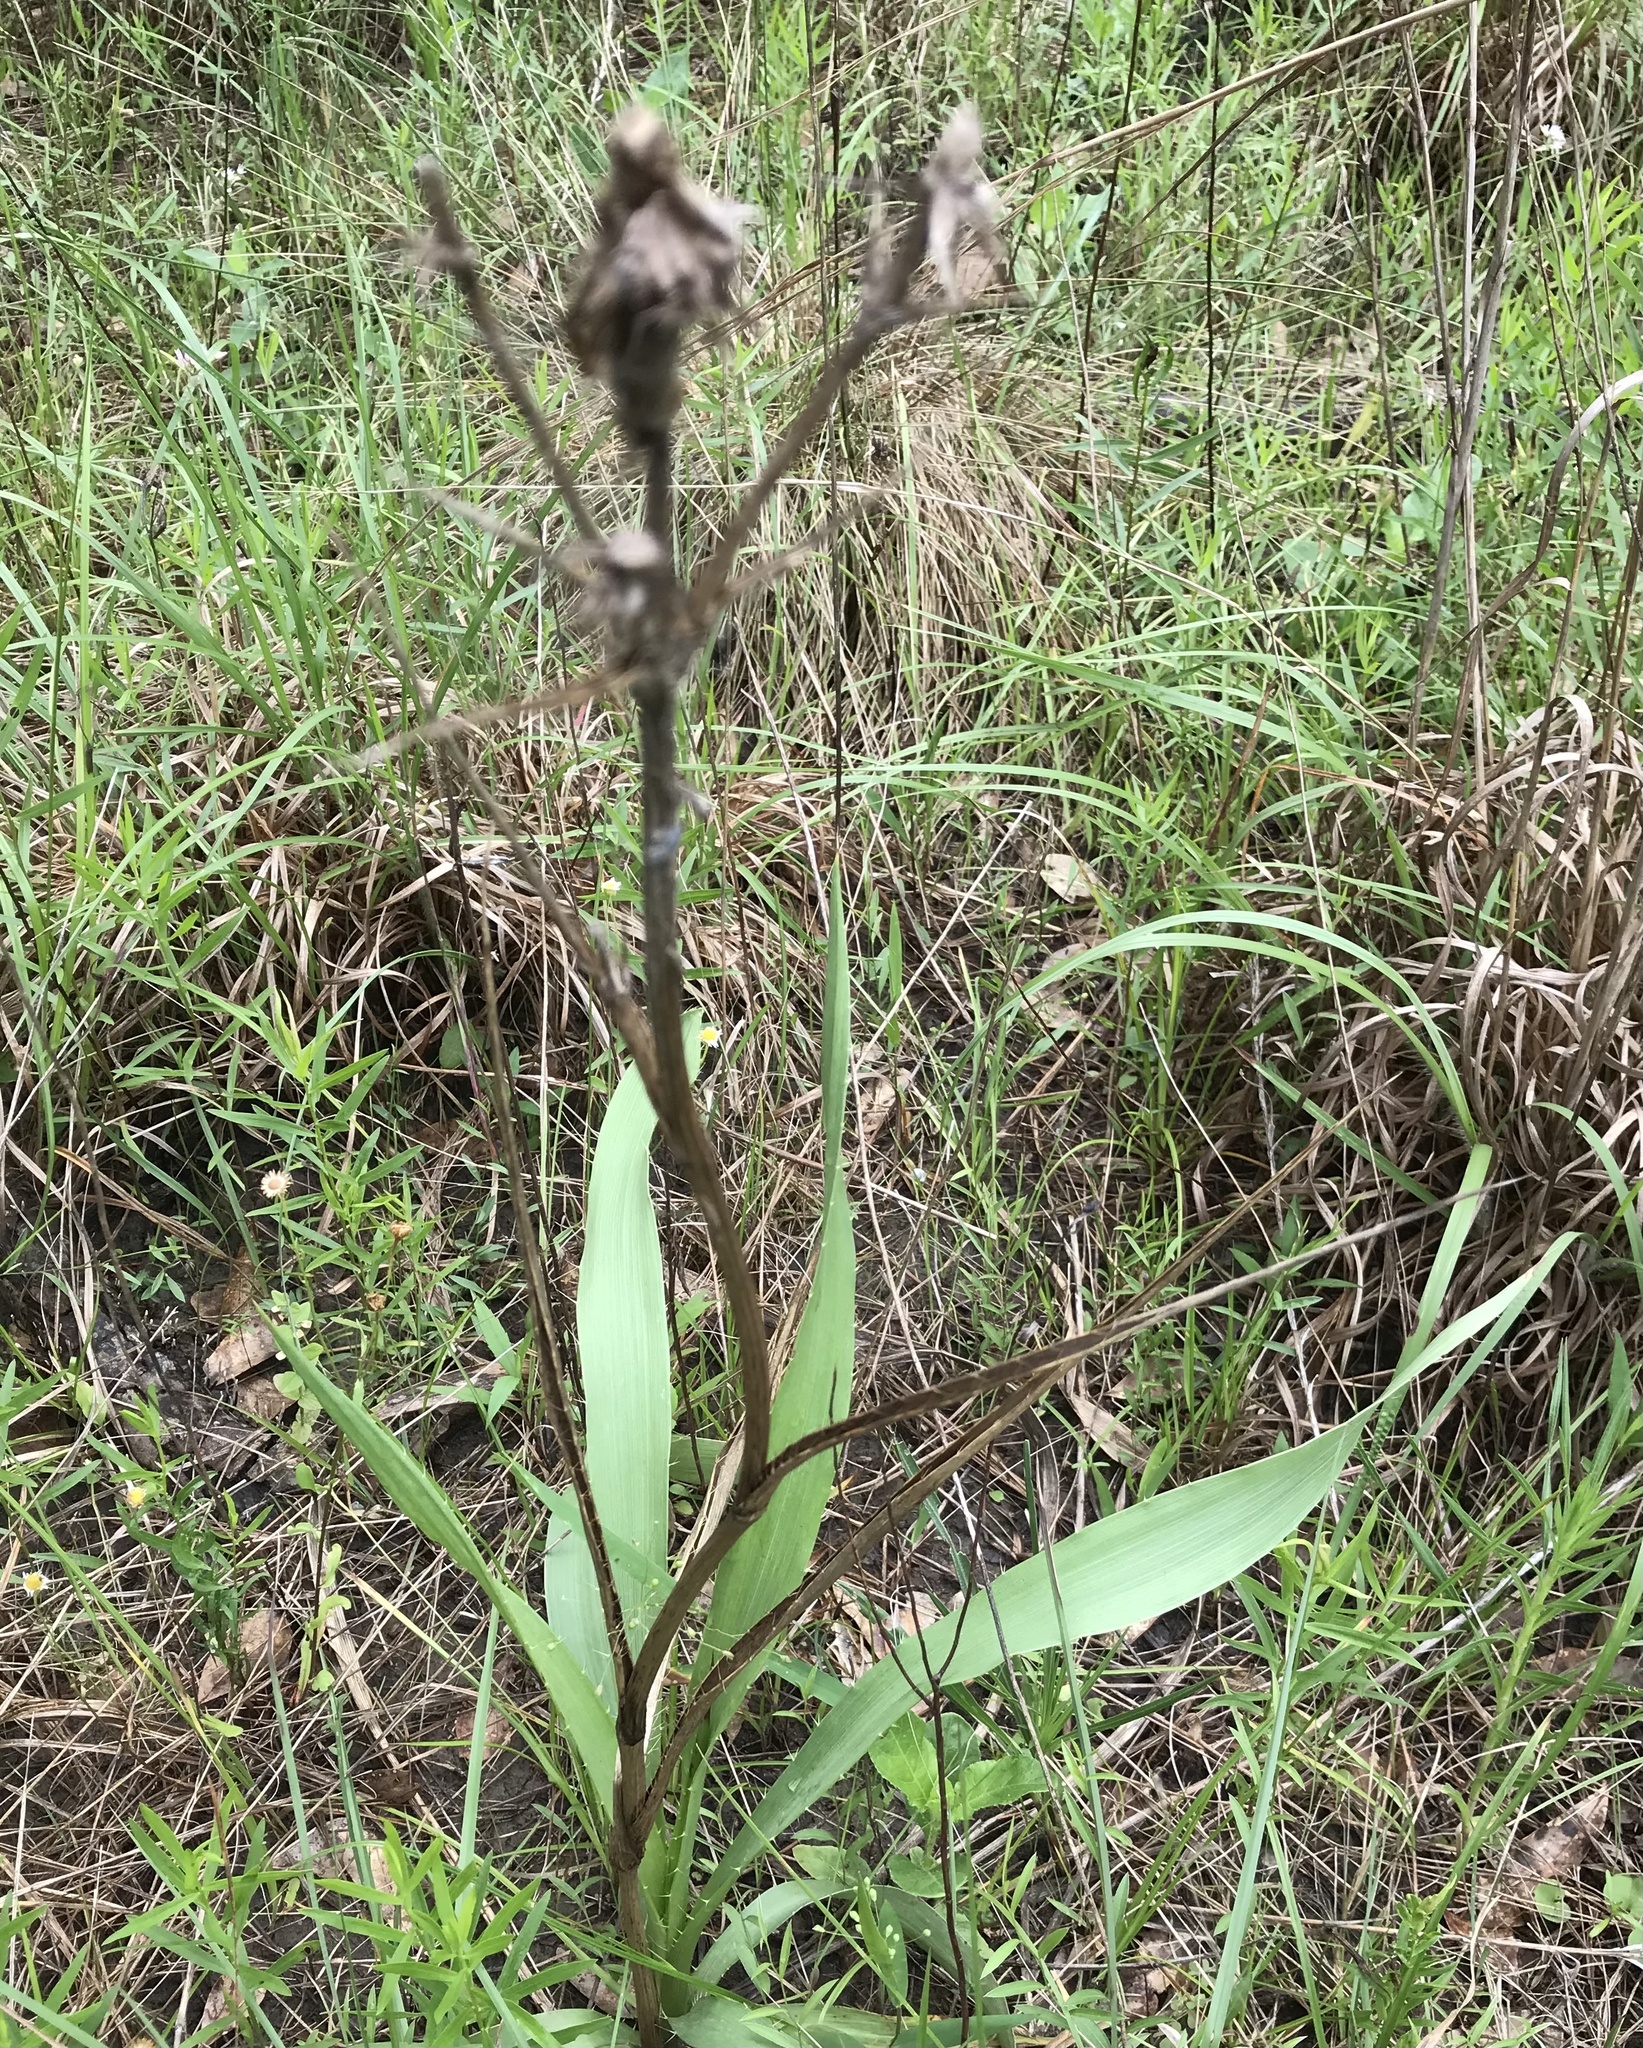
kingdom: Plantae
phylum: Tracheophyta
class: Magnoliopsida
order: Apiales
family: Apiaceae
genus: Eryngium
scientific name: Eryngium yuccifolium
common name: Button eryngo
